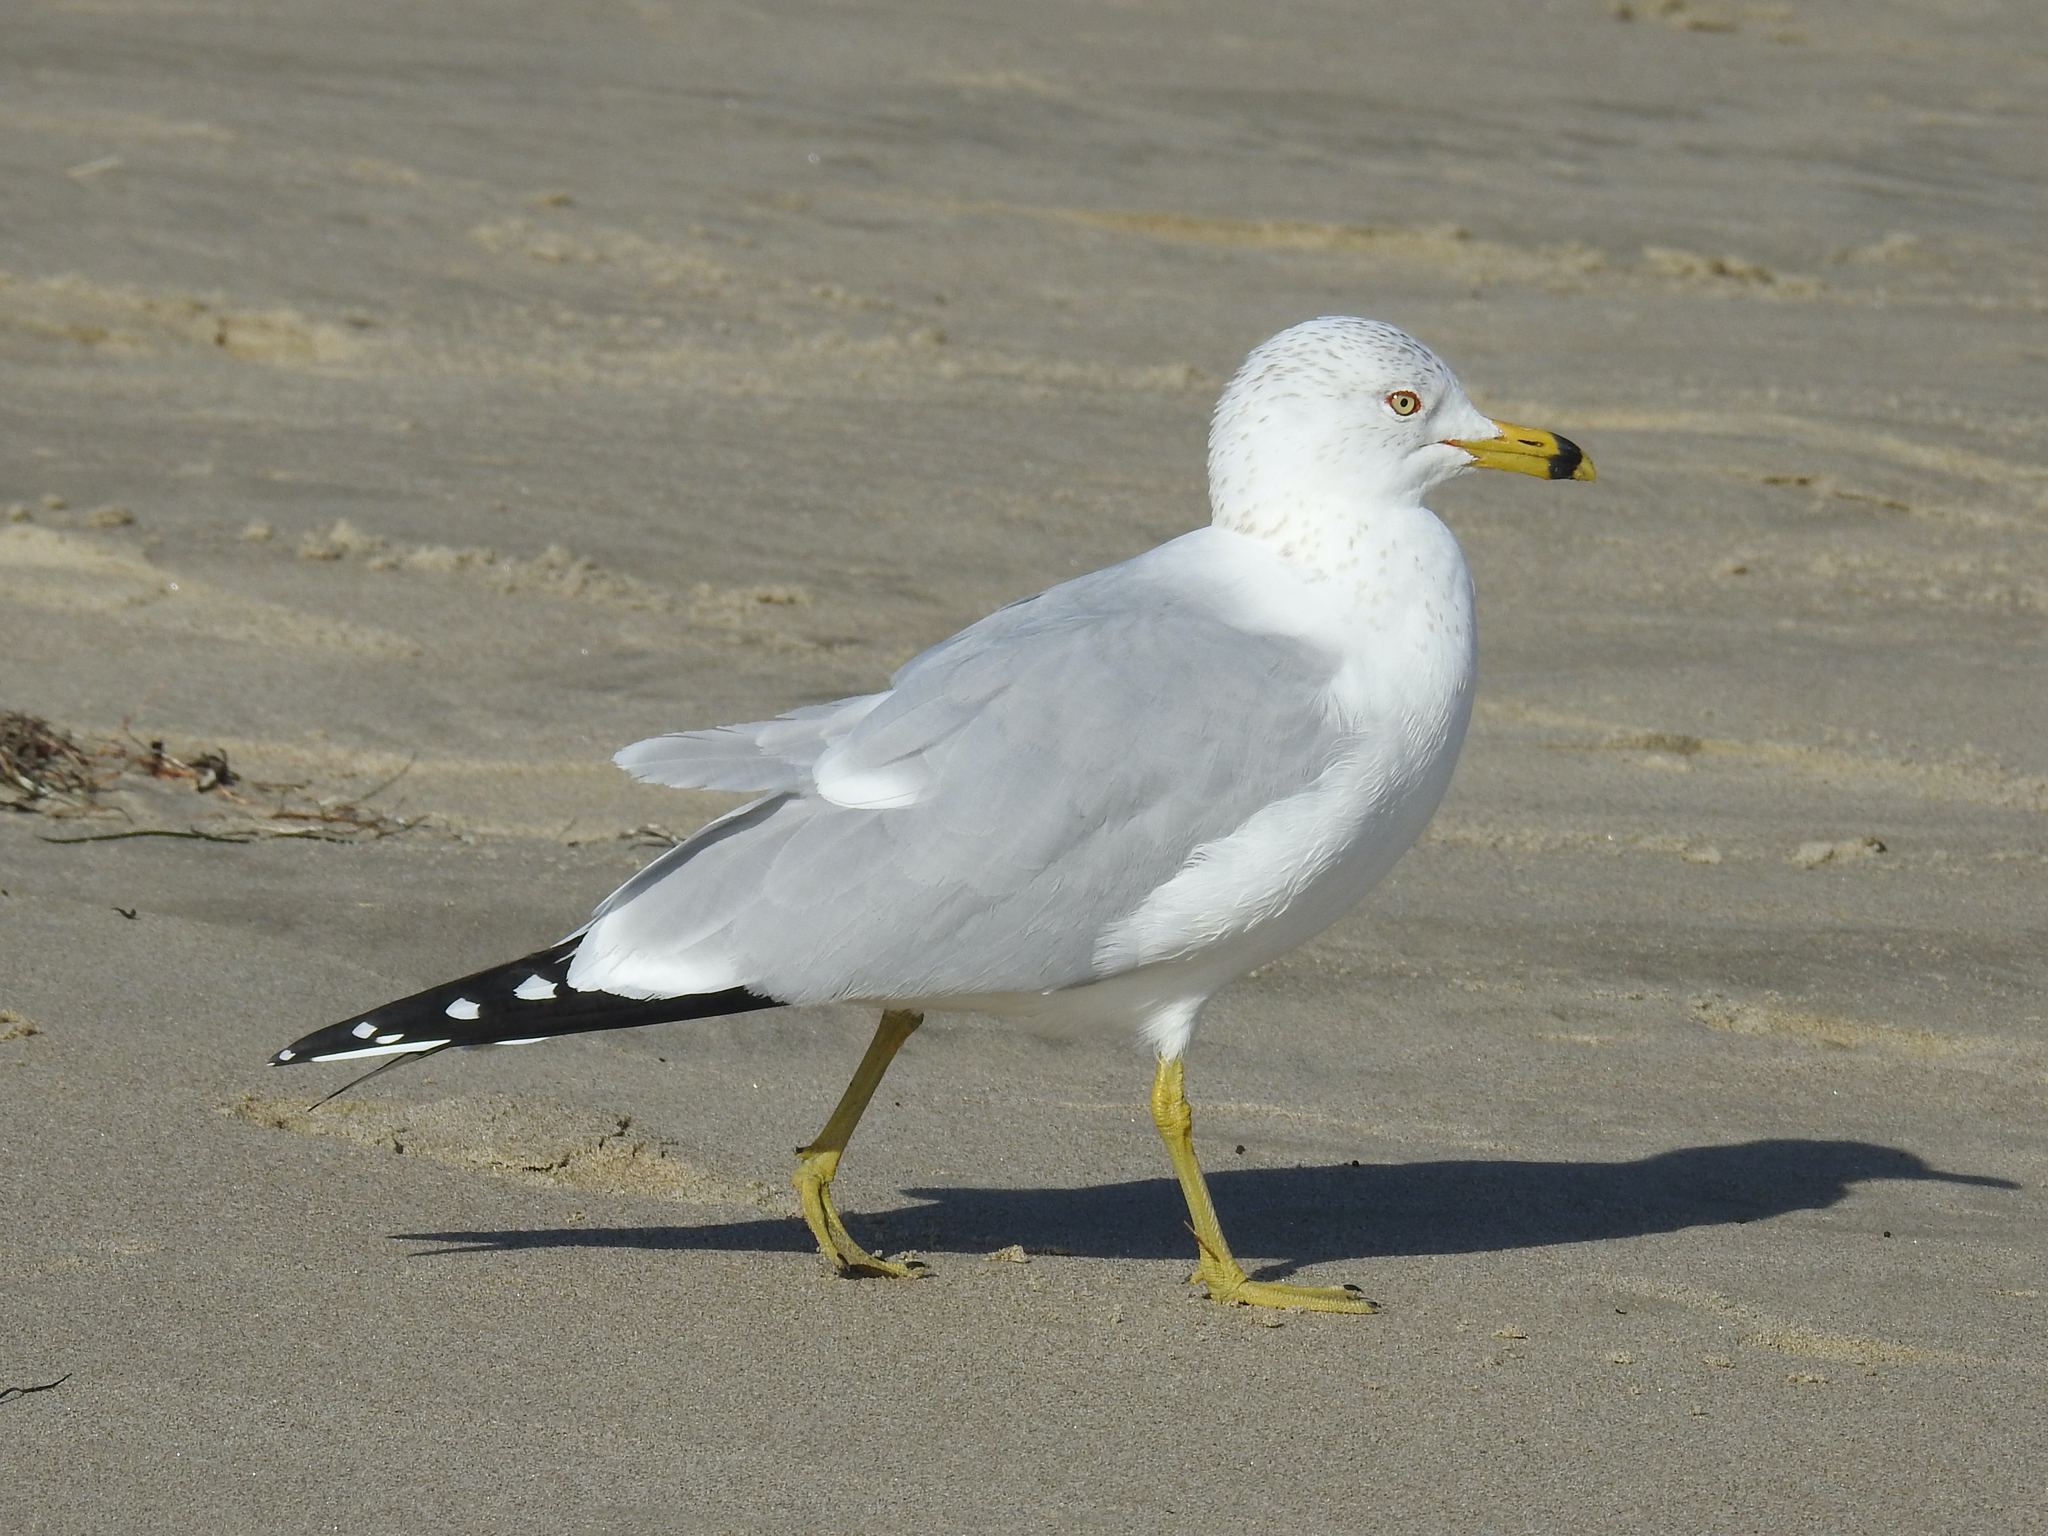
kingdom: Animalia
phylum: Chordata
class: Aves
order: Charadriiformes
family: Laridae
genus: Larus
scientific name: Larus delawarensis
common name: Ring-billed gull
